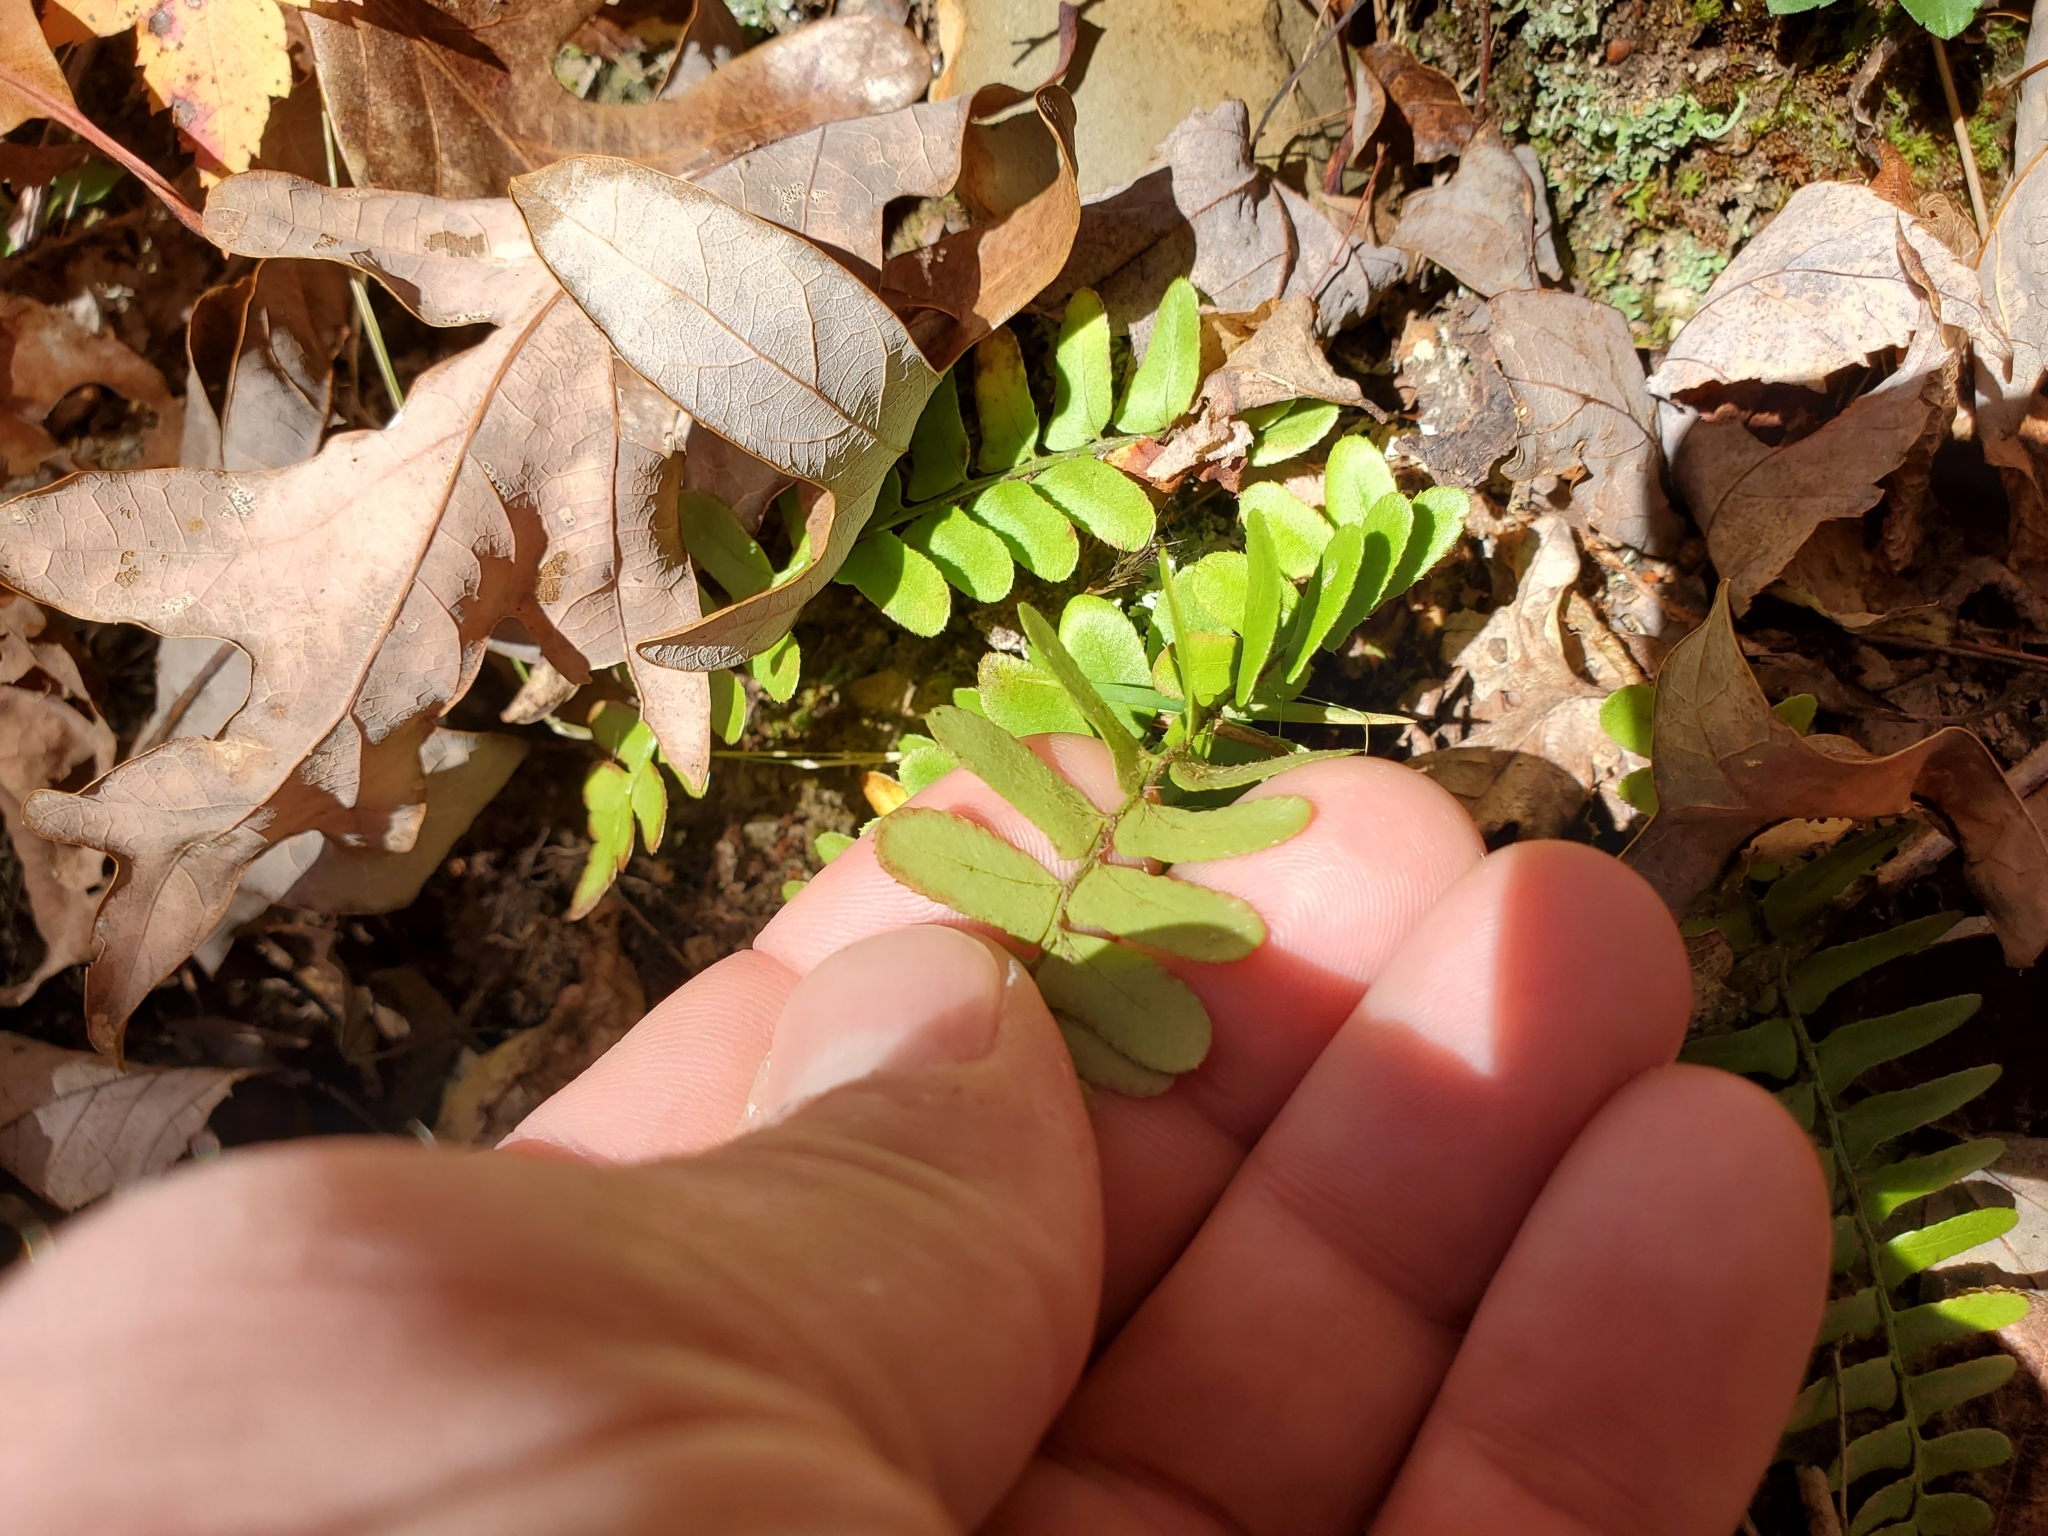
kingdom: Plantae
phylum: Tracheophyta
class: Polypodiopsida
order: Polypodiales
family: Dryopteridaceae
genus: Polystichum
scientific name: Polystichum acrostichoides
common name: Christmas fern
